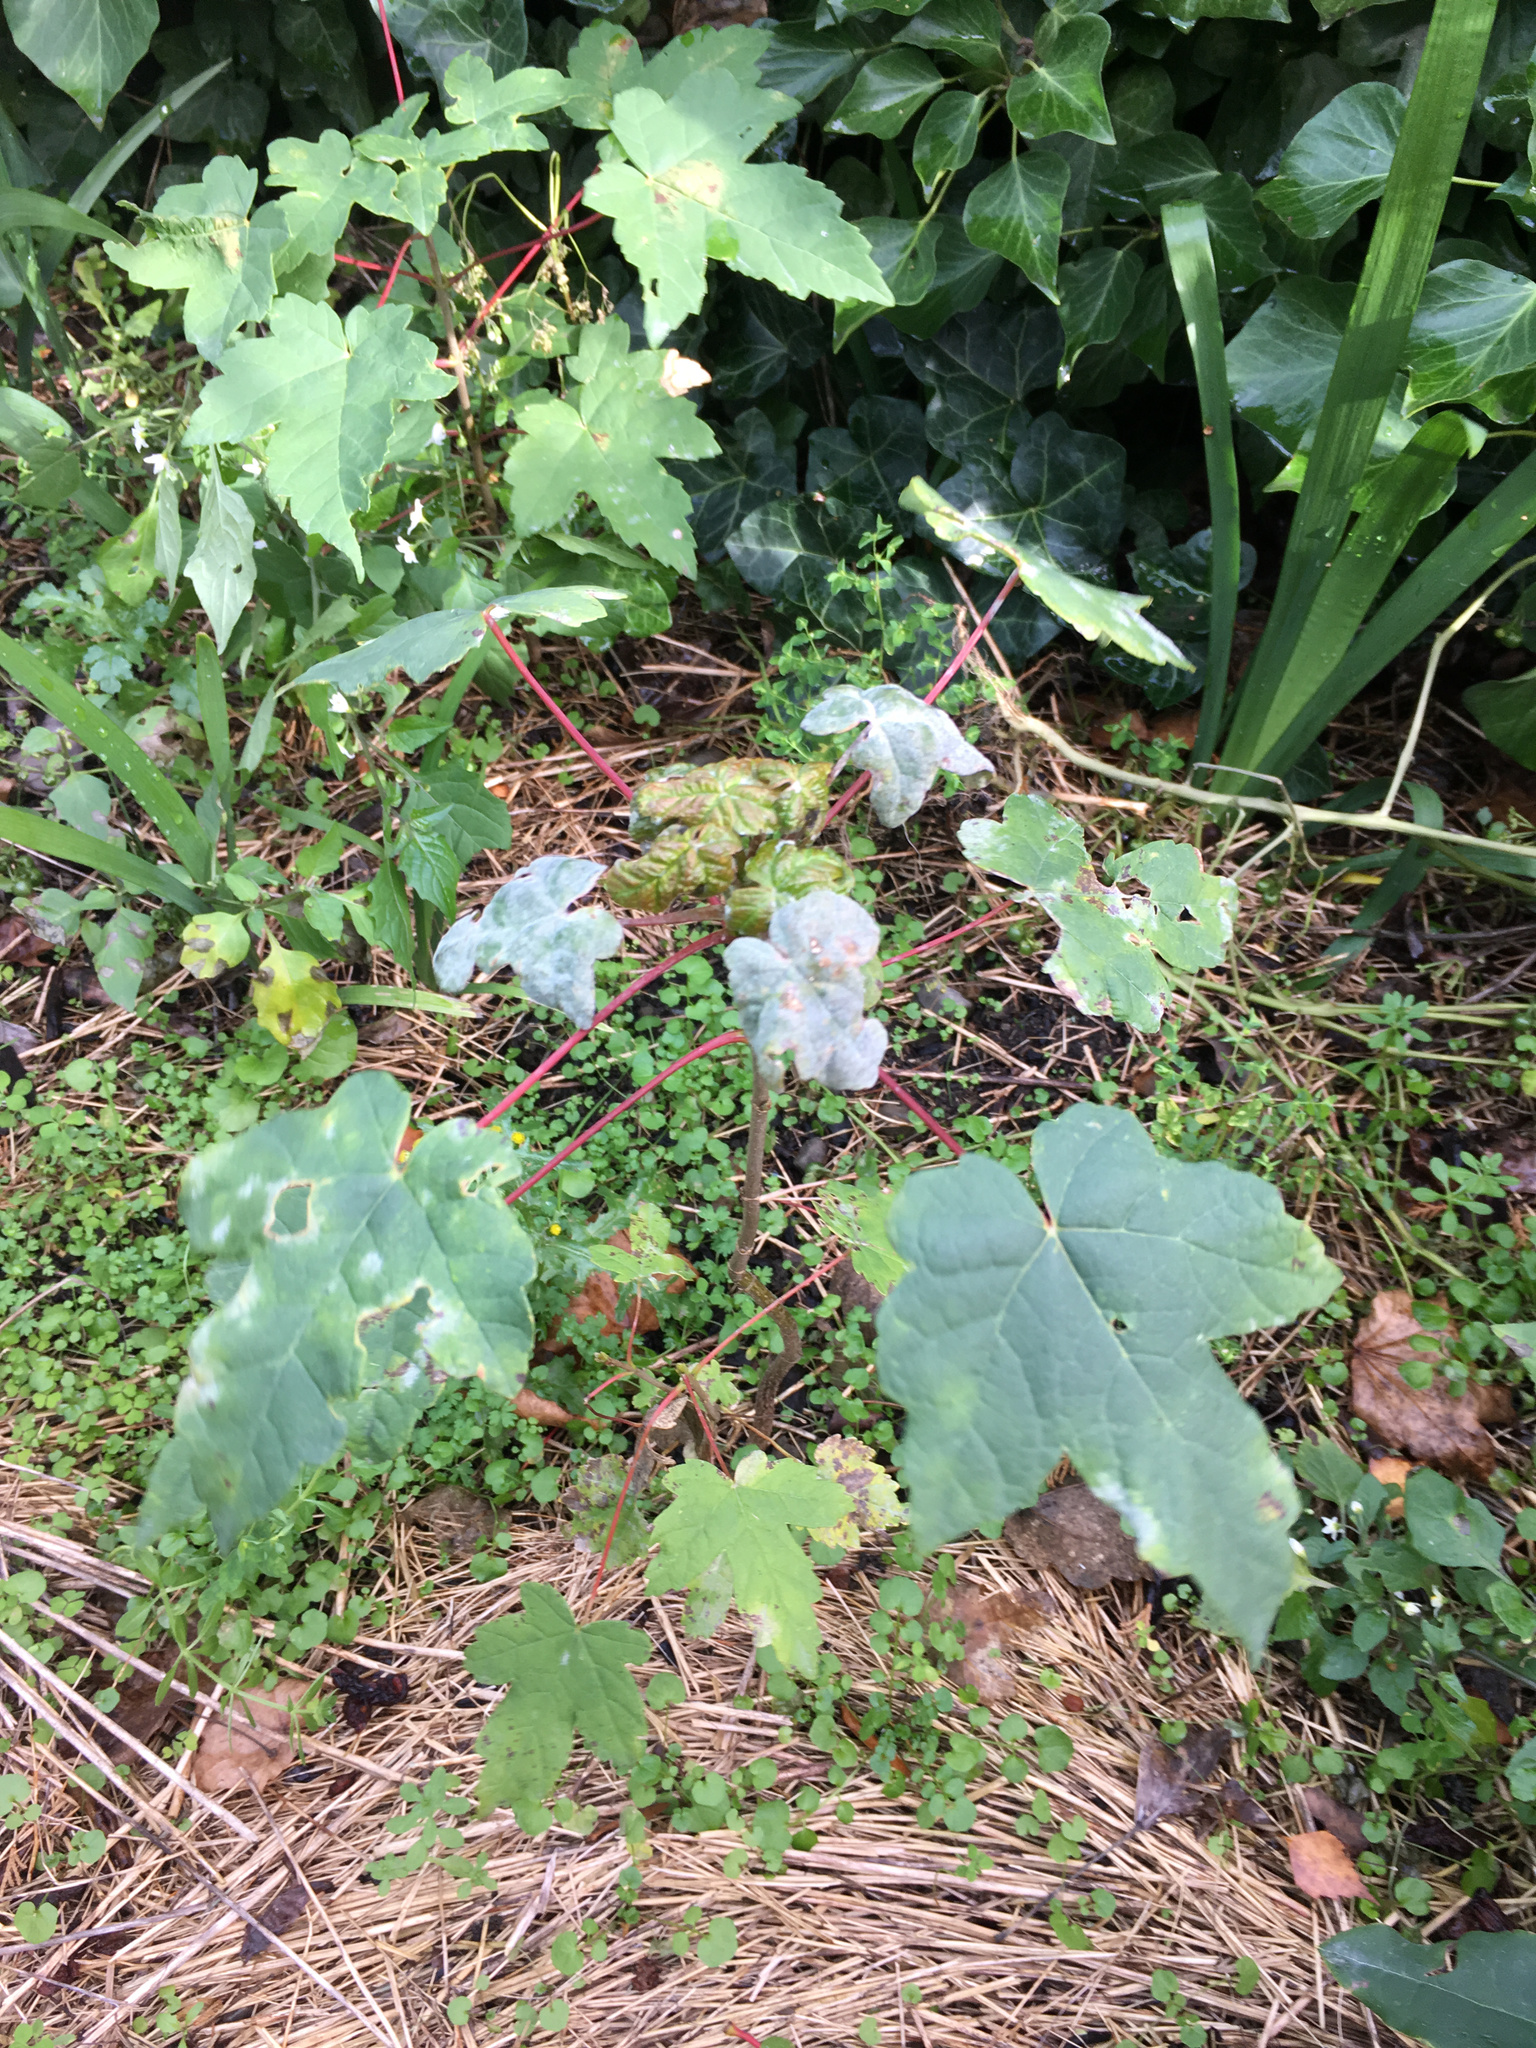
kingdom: Plantae
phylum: Tracheophyta
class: Magnoliopsida
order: Sapindales
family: Sapindaceae
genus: Acer
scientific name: Acer pseudoplatanus
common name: Sycamore
